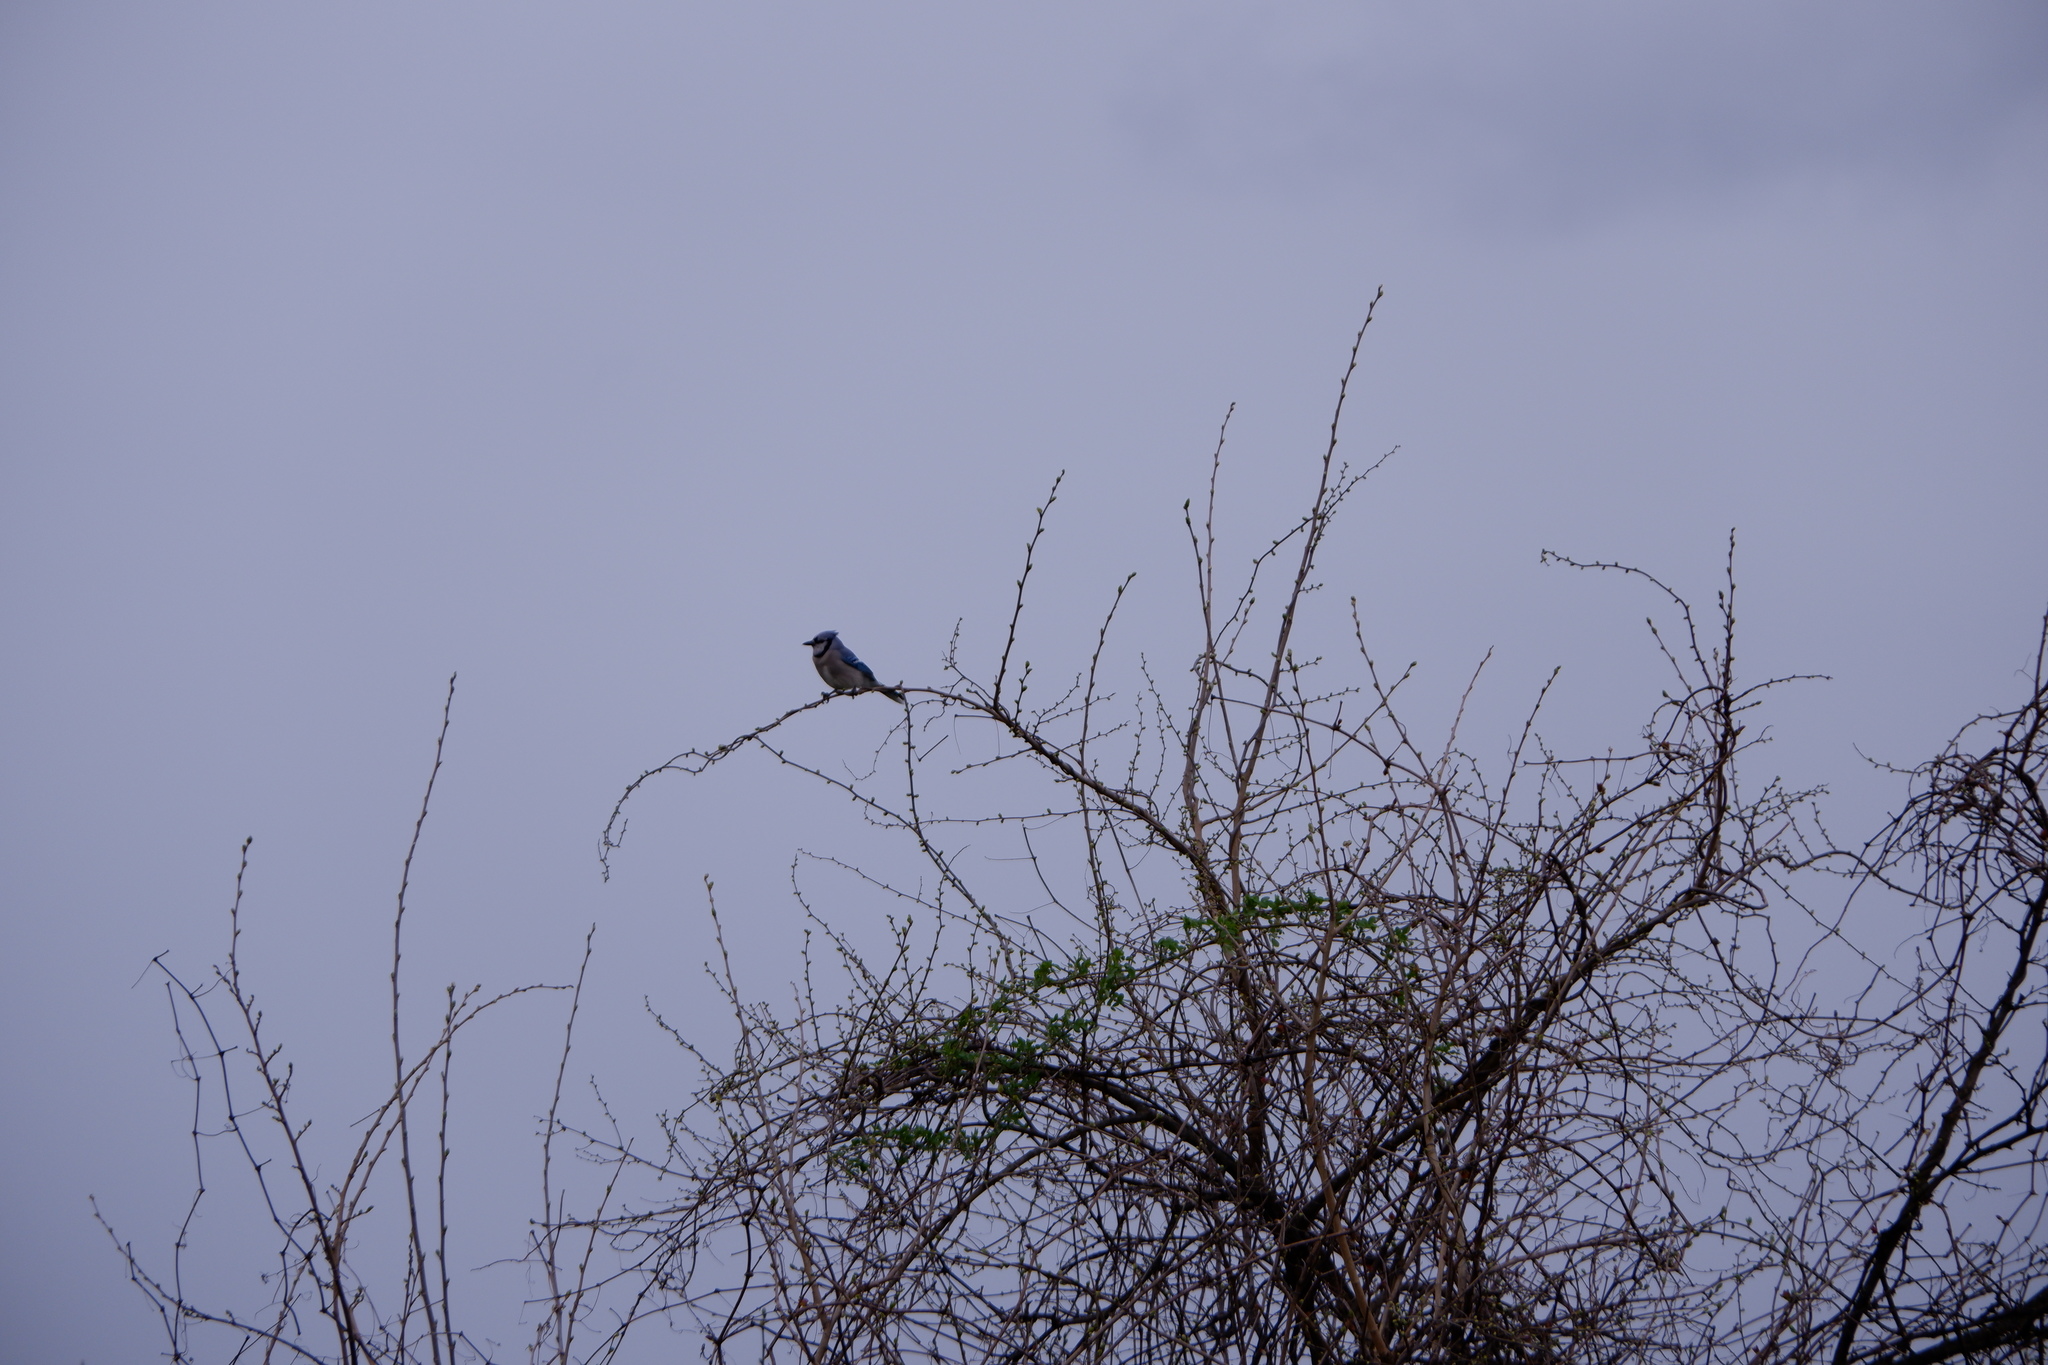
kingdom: Animalia
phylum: Chordata
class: Aves
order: Passeriformes
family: Corvidae
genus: Cyanocitta
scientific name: Cyanocitta cristata
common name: Blue jay
